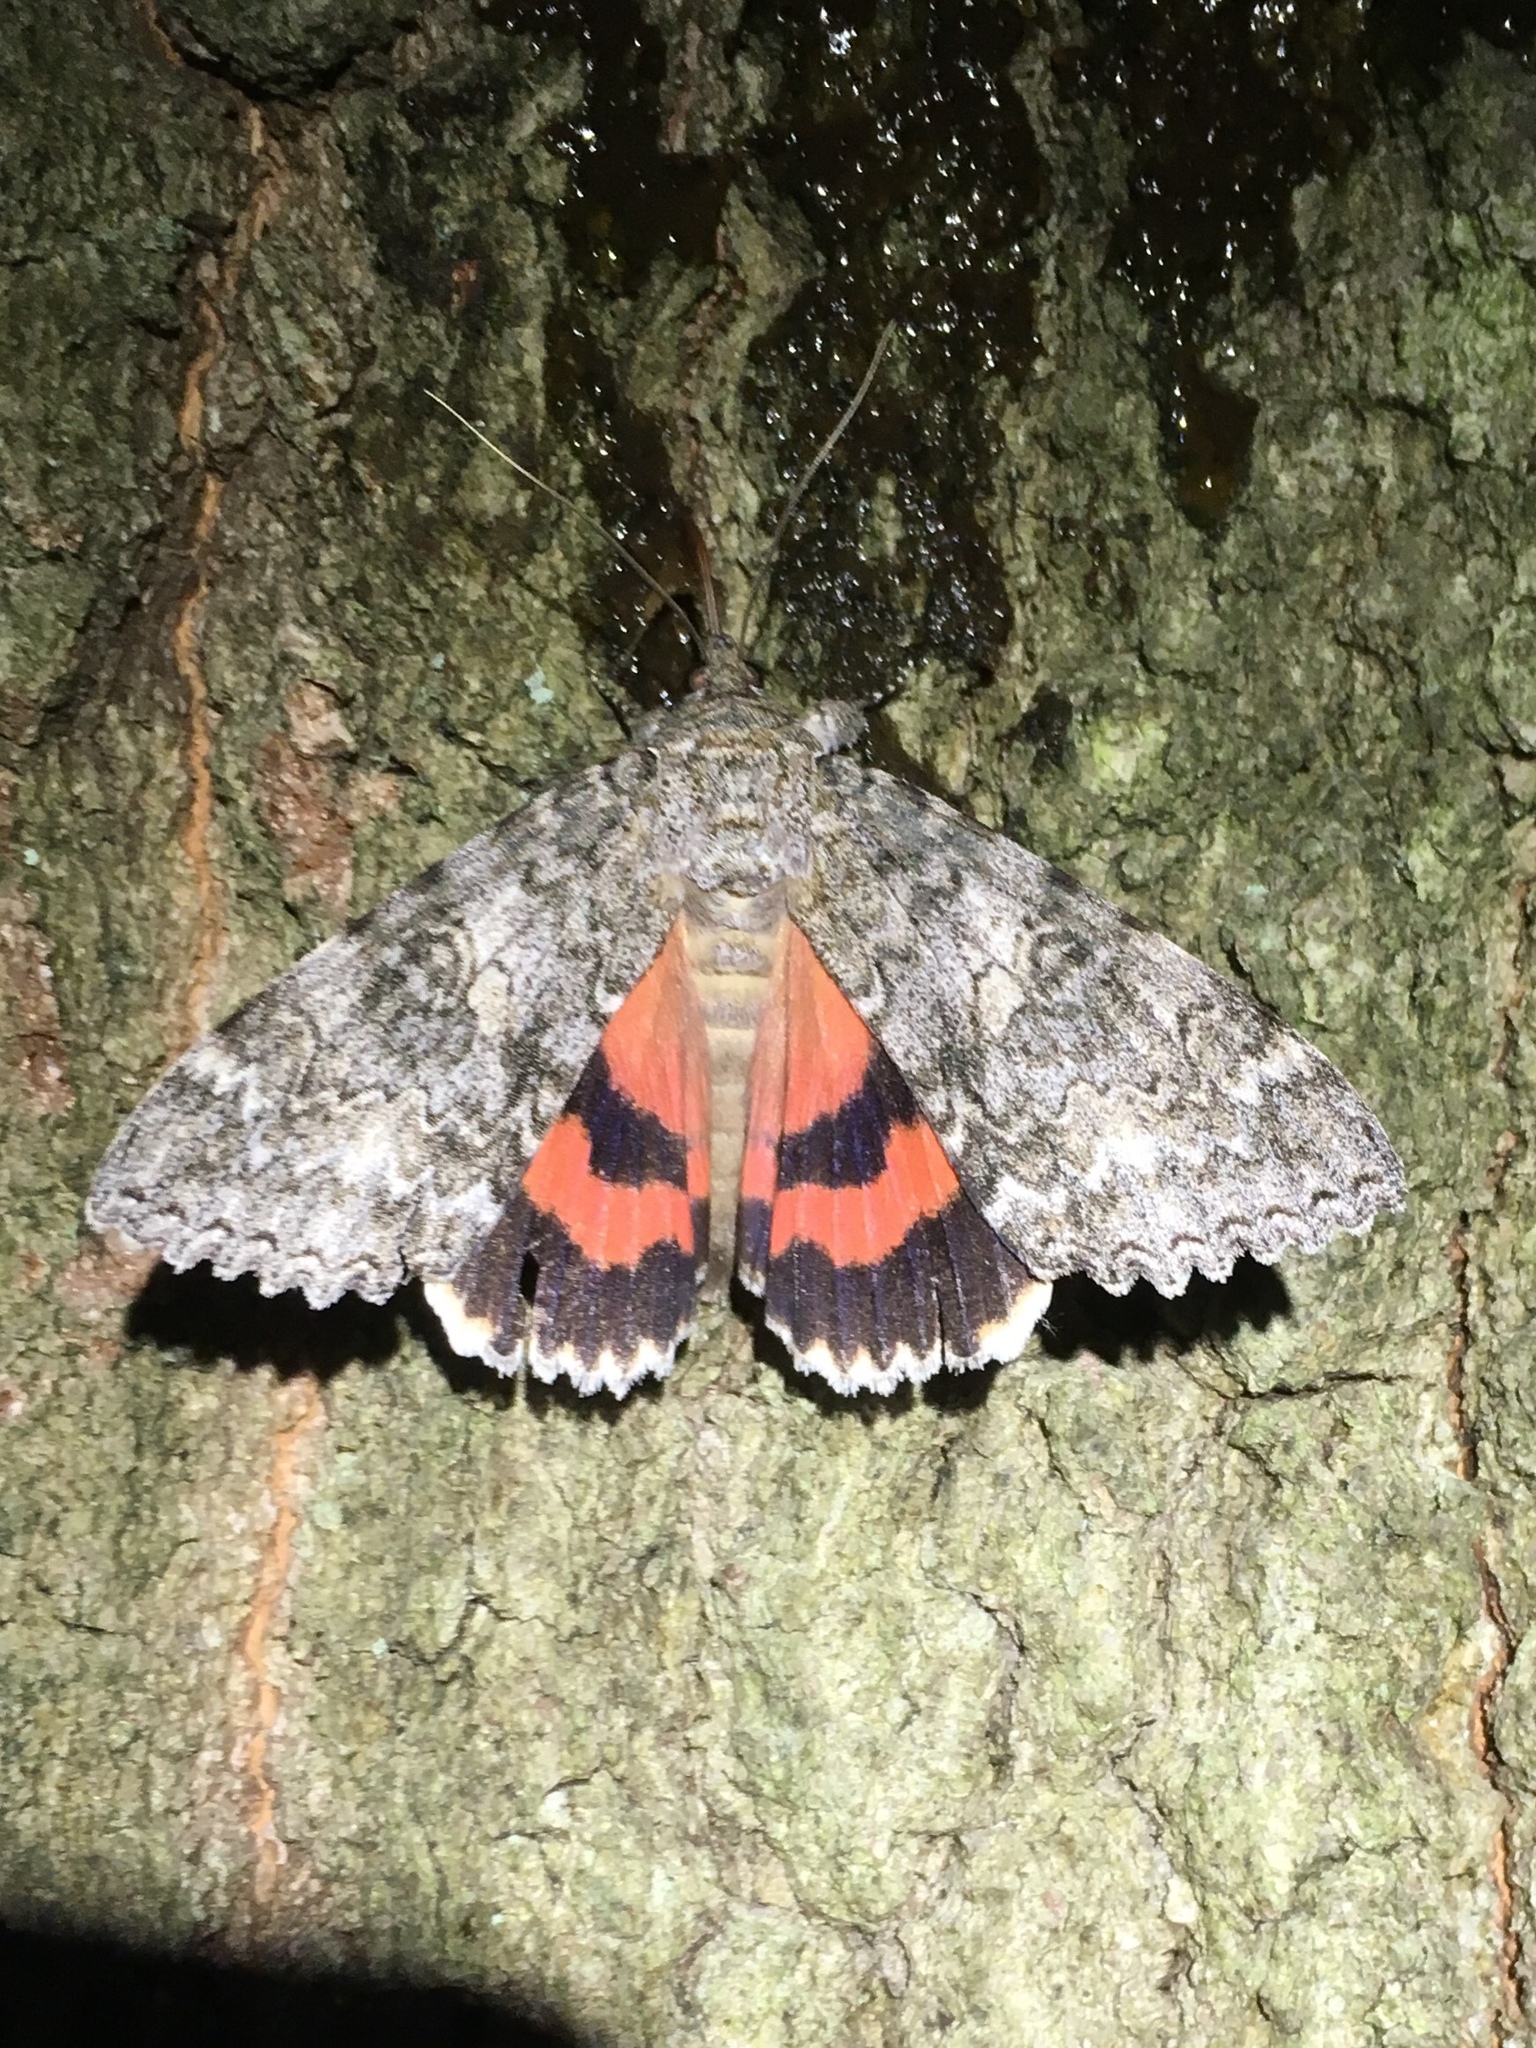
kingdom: Animalia
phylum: Arthropoda
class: Insecta
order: Lepidoptera
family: Erebidae
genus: Catocala
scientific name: Catocala unijuga
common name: Once-married underwing
